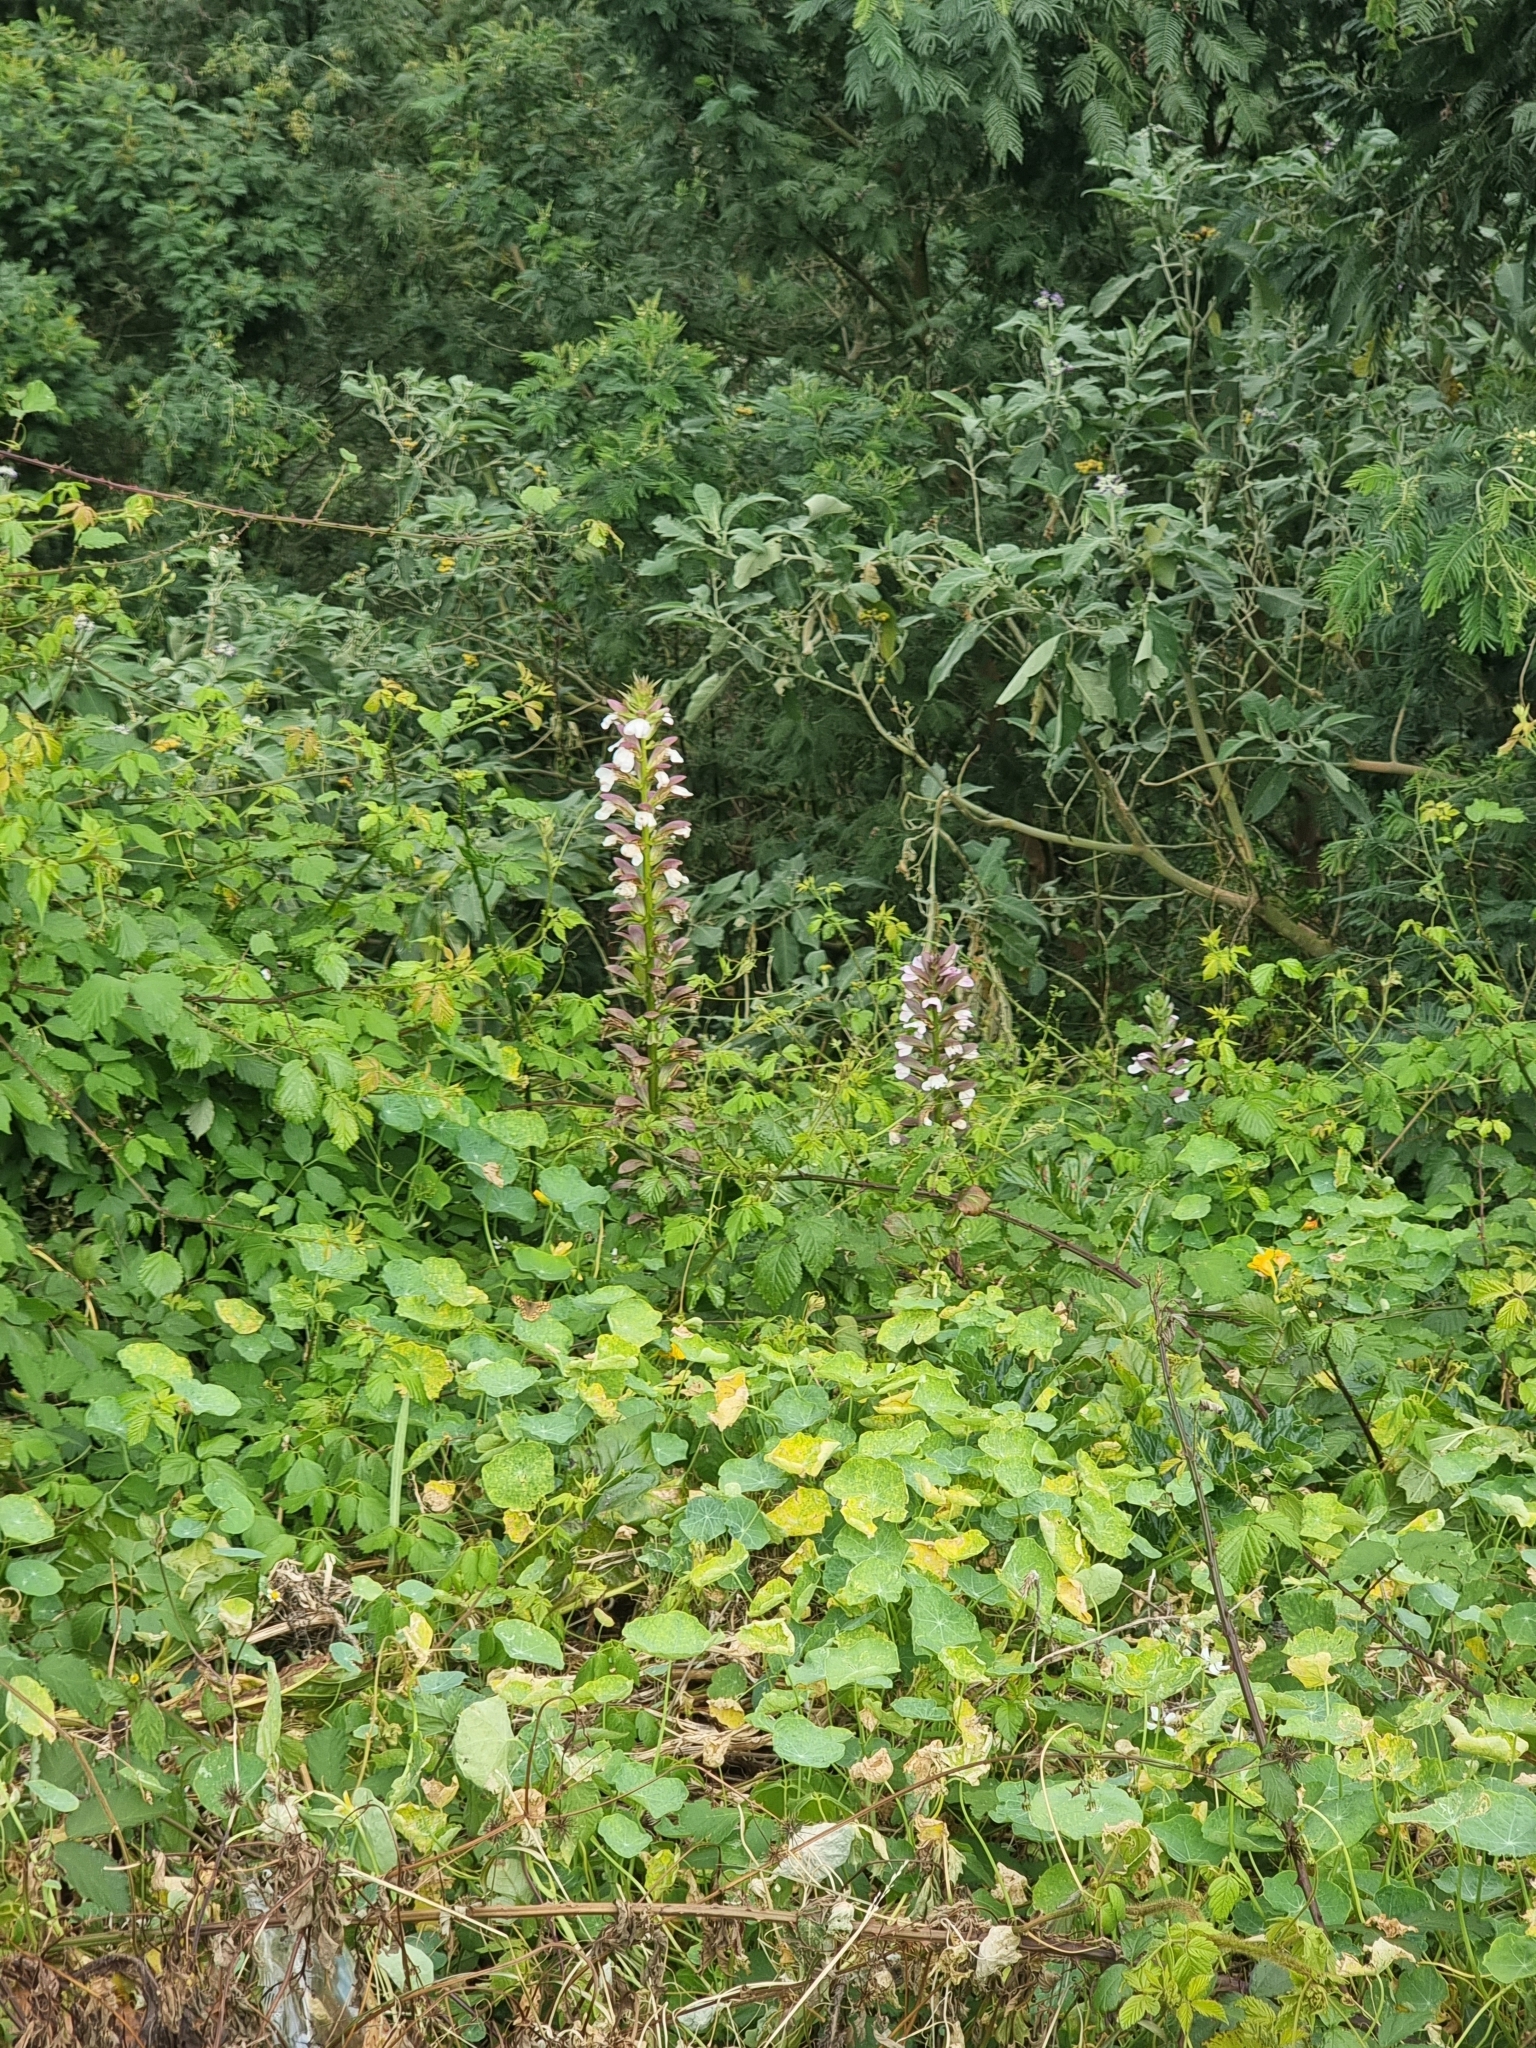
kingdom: Plantae
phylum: Tracheophyta
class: Magnoliopsida
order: Lamiales
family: Acanthaceae
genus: Acanthus
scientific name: Acanthus mollis
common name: Bear's-breech
